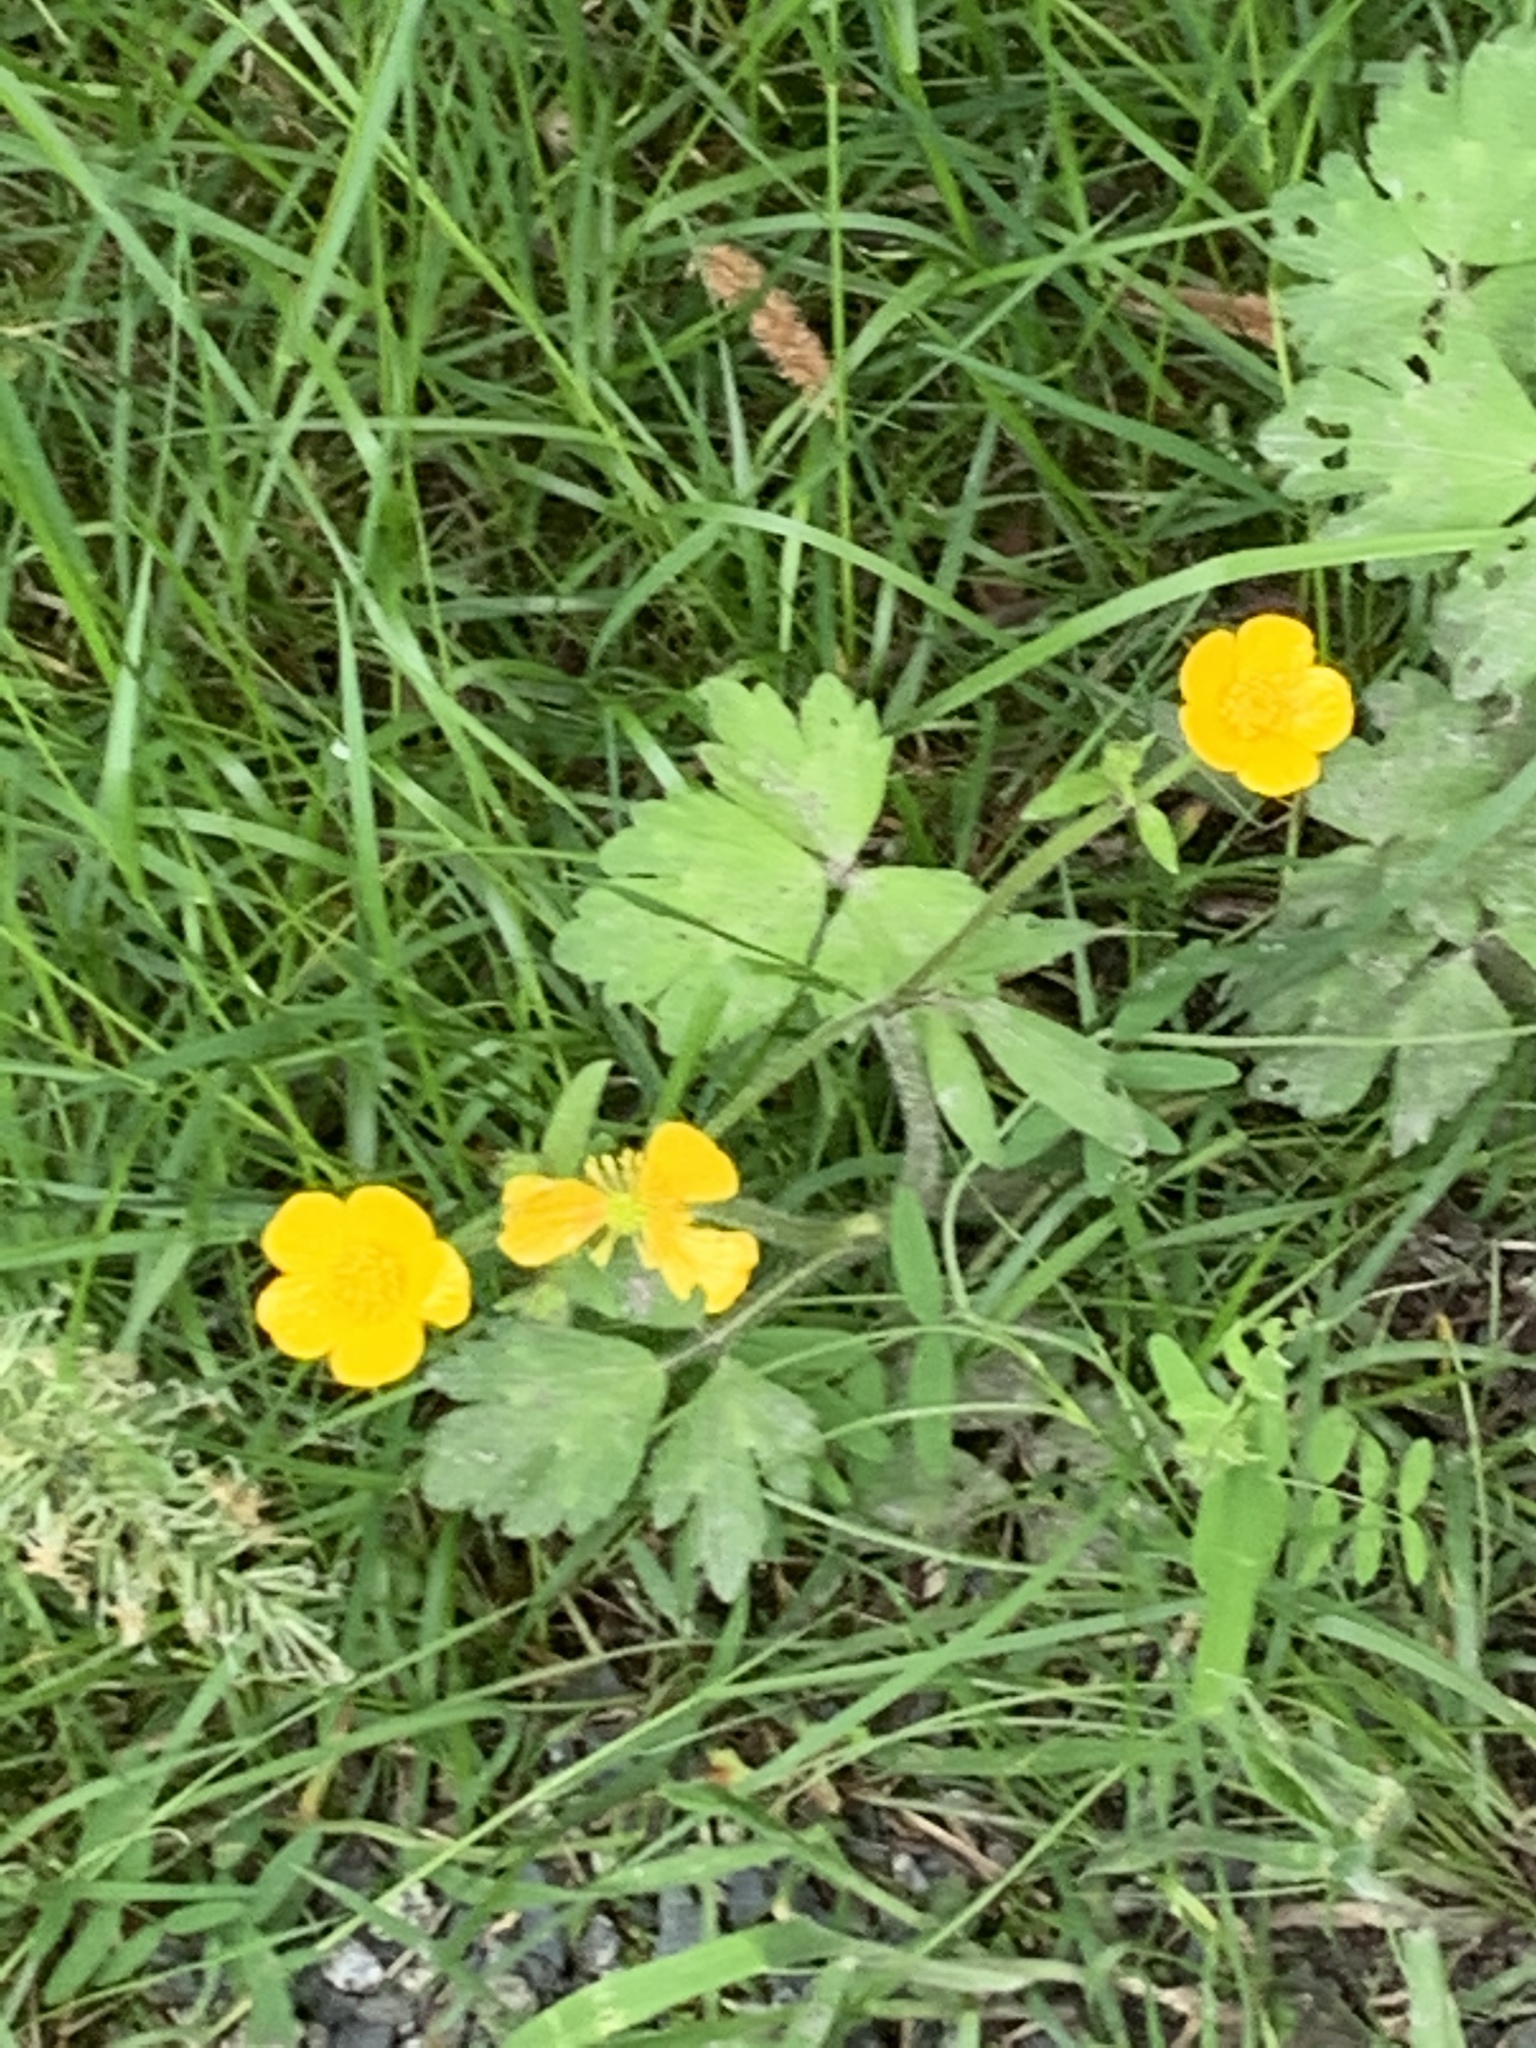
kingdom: Plantae
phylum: Tracheophyta
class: Magnoliopsida
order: Ranunculales
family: Ranunculaceae
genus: Ranunculus
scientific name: Ranunculus repens
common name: Creeping buttercup
